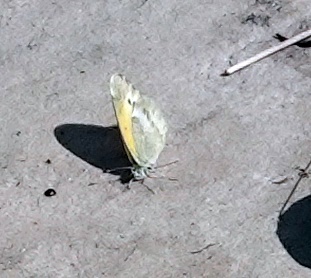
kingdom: Animalia
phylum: Arthropoda
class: Insecta
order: Lepidoptera
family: Pieridae
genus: Nathalis
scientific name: Nathalis iole
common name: Dainty sulphur
